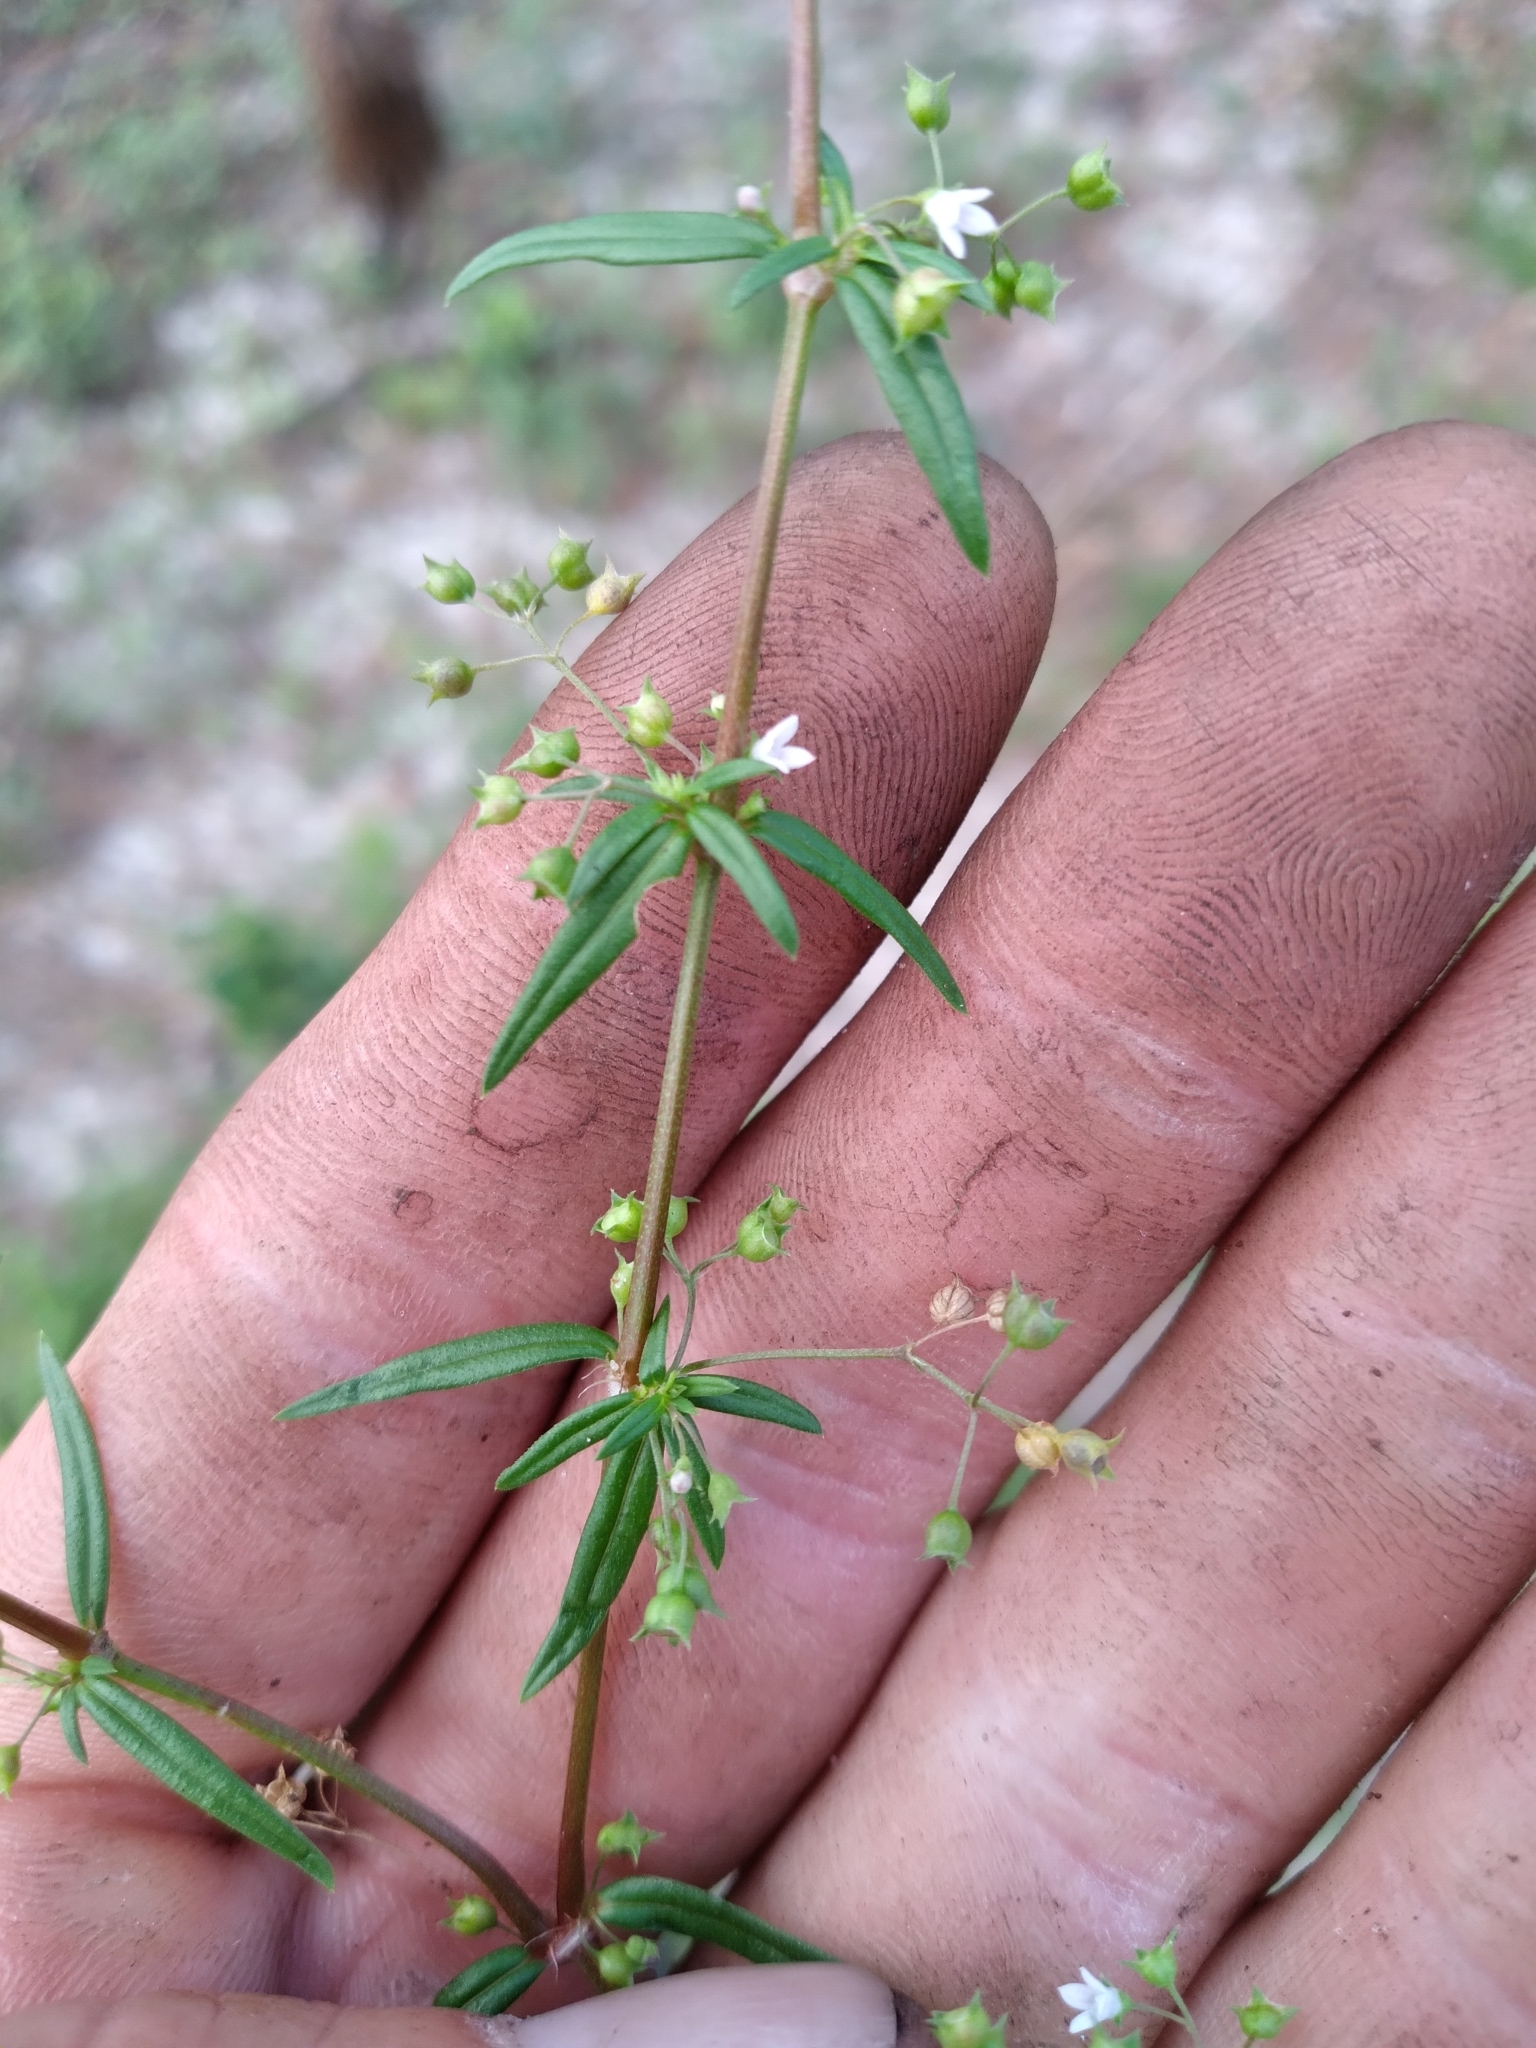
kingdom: Plantae
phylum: Tracheophyta
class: Magnoliopsida
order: Gentianales
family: Rubiaceae
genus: Oldenlandia
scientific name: Oldenlandia corymbosa
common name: Flat-top mille graines
